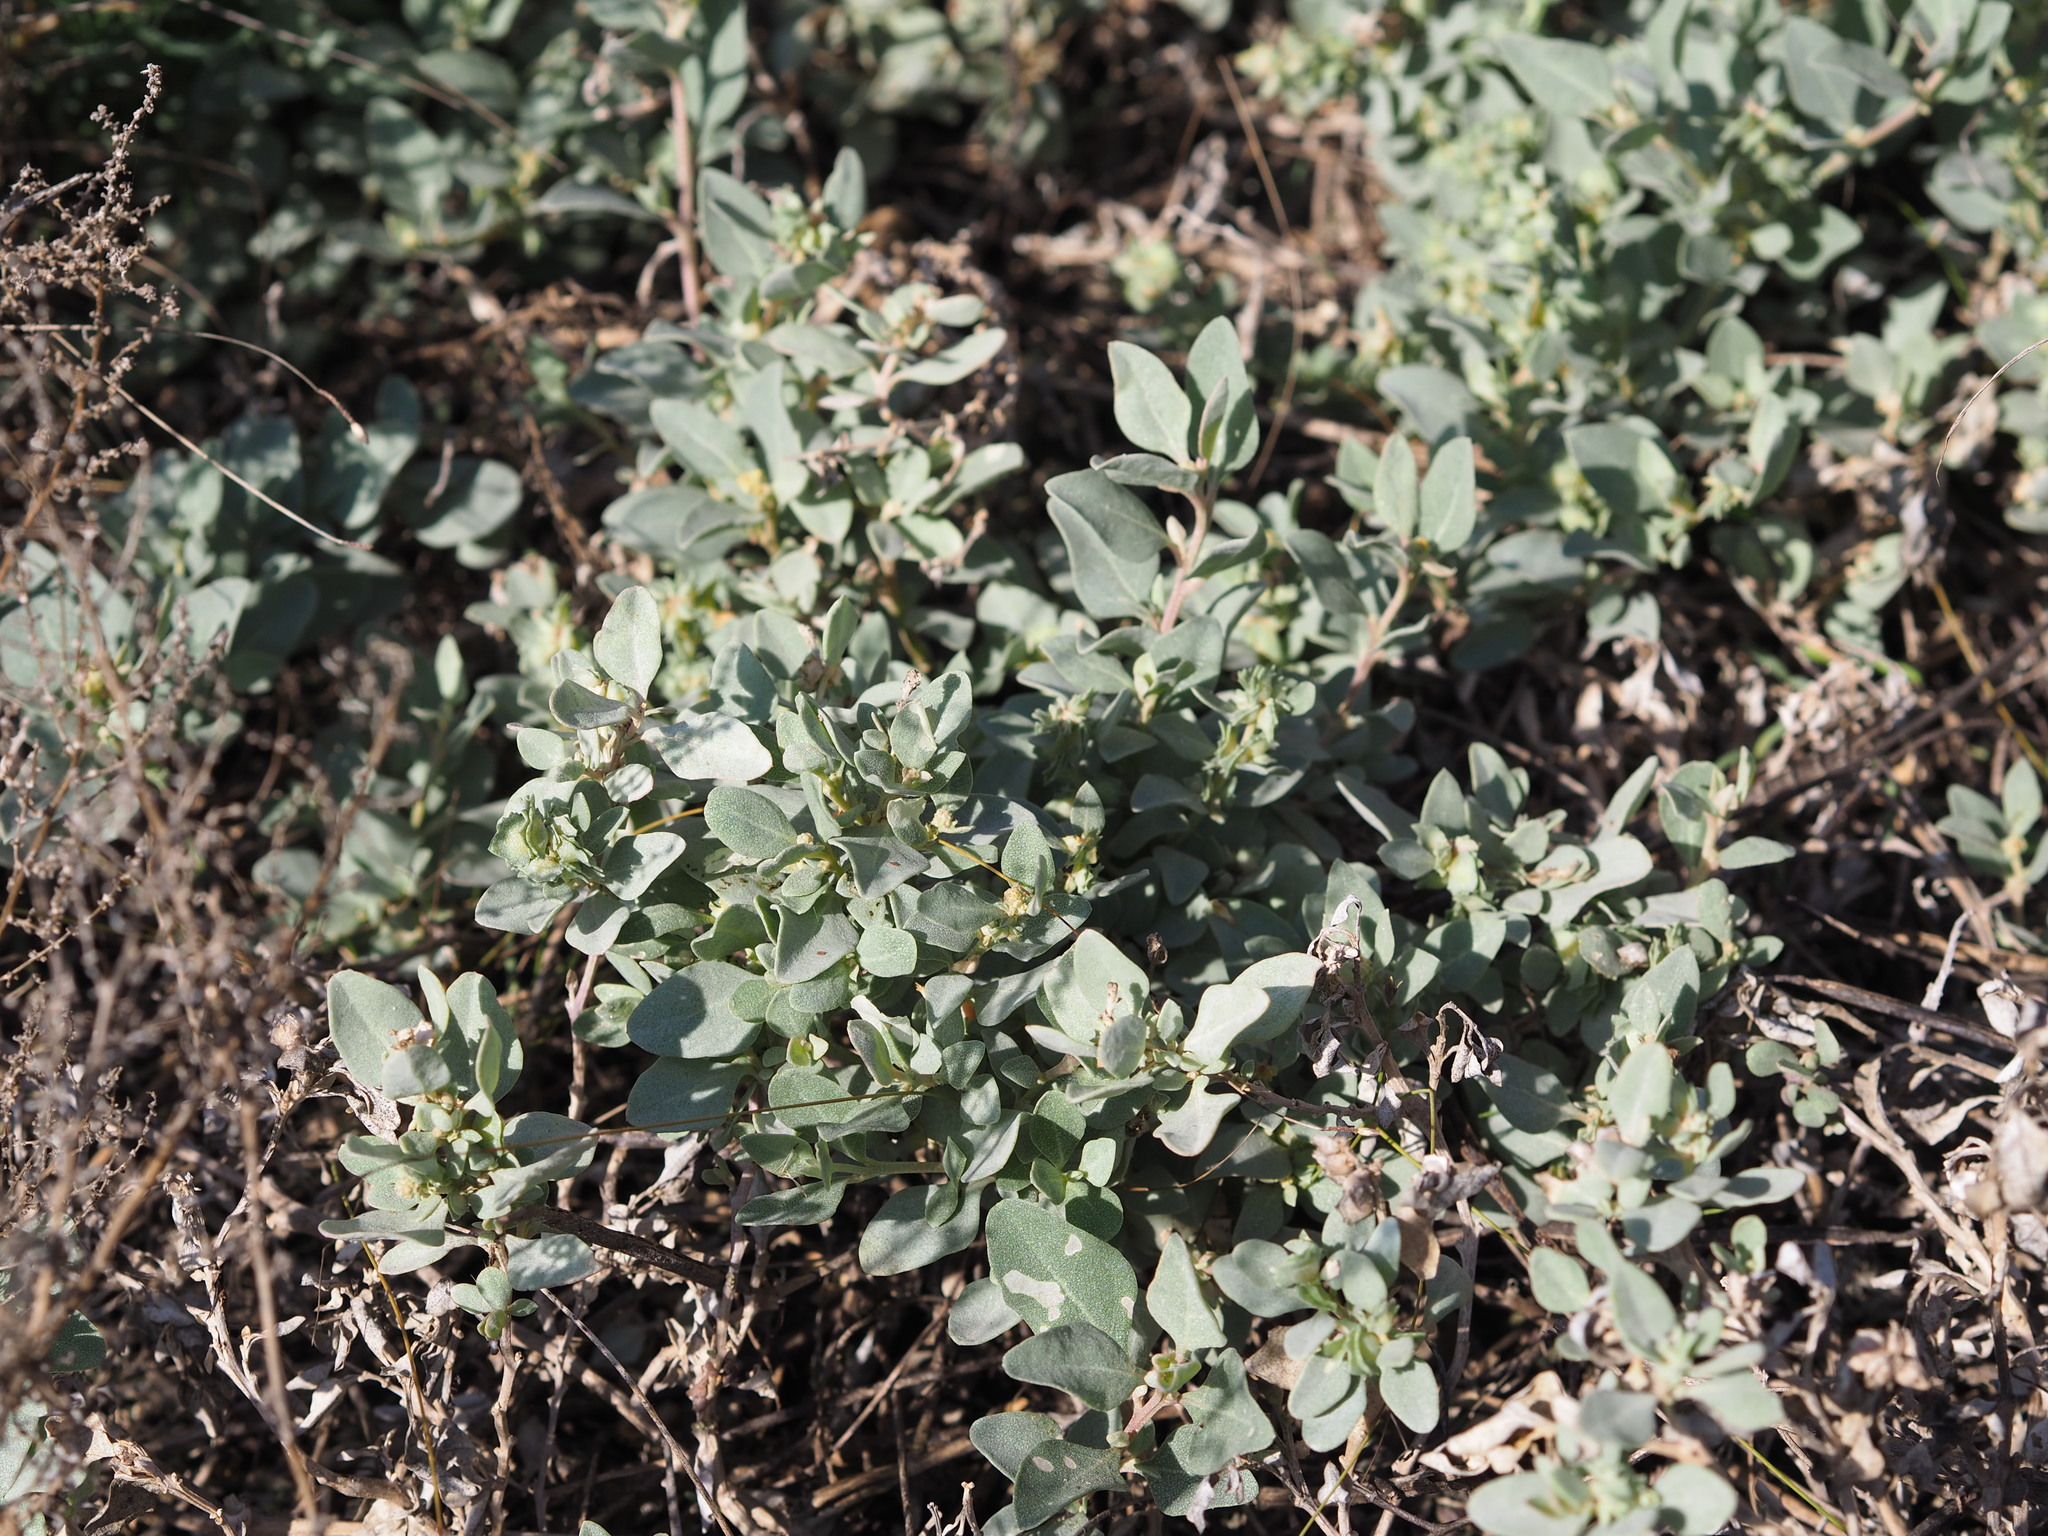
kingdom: Plantae
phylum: Tracheophyta
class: Magnoliopsida
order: Caryophyllales
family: Amaranthaceae
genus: Atriplex
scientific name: Atriplex maximowicziana
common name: Maximowicz's saltbush
